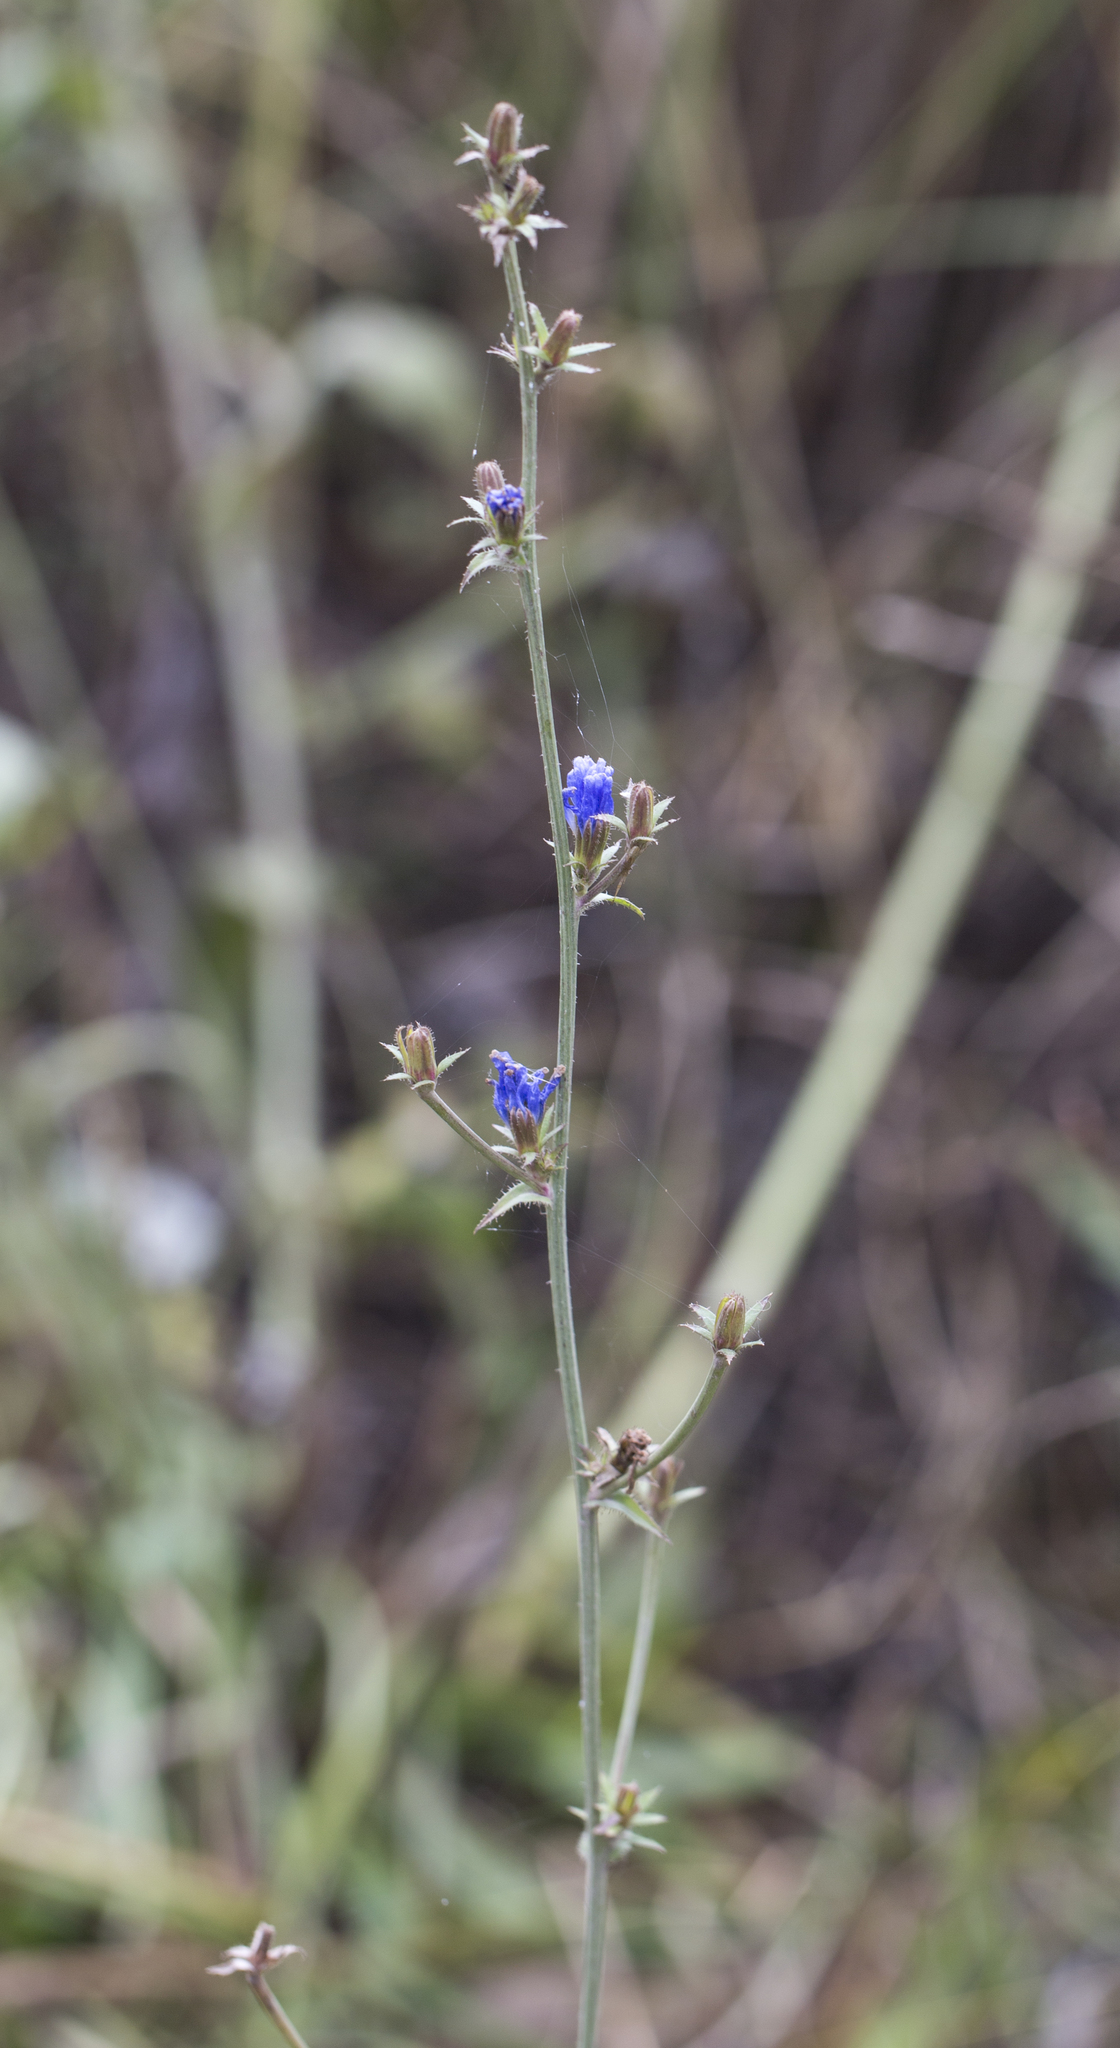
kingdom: Plantae
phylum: Tracheophyta
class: Magnoliopsida
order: Asterales
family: Asteraceae
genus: Cichorium
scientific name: Cichorium intybus
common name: Chicory
